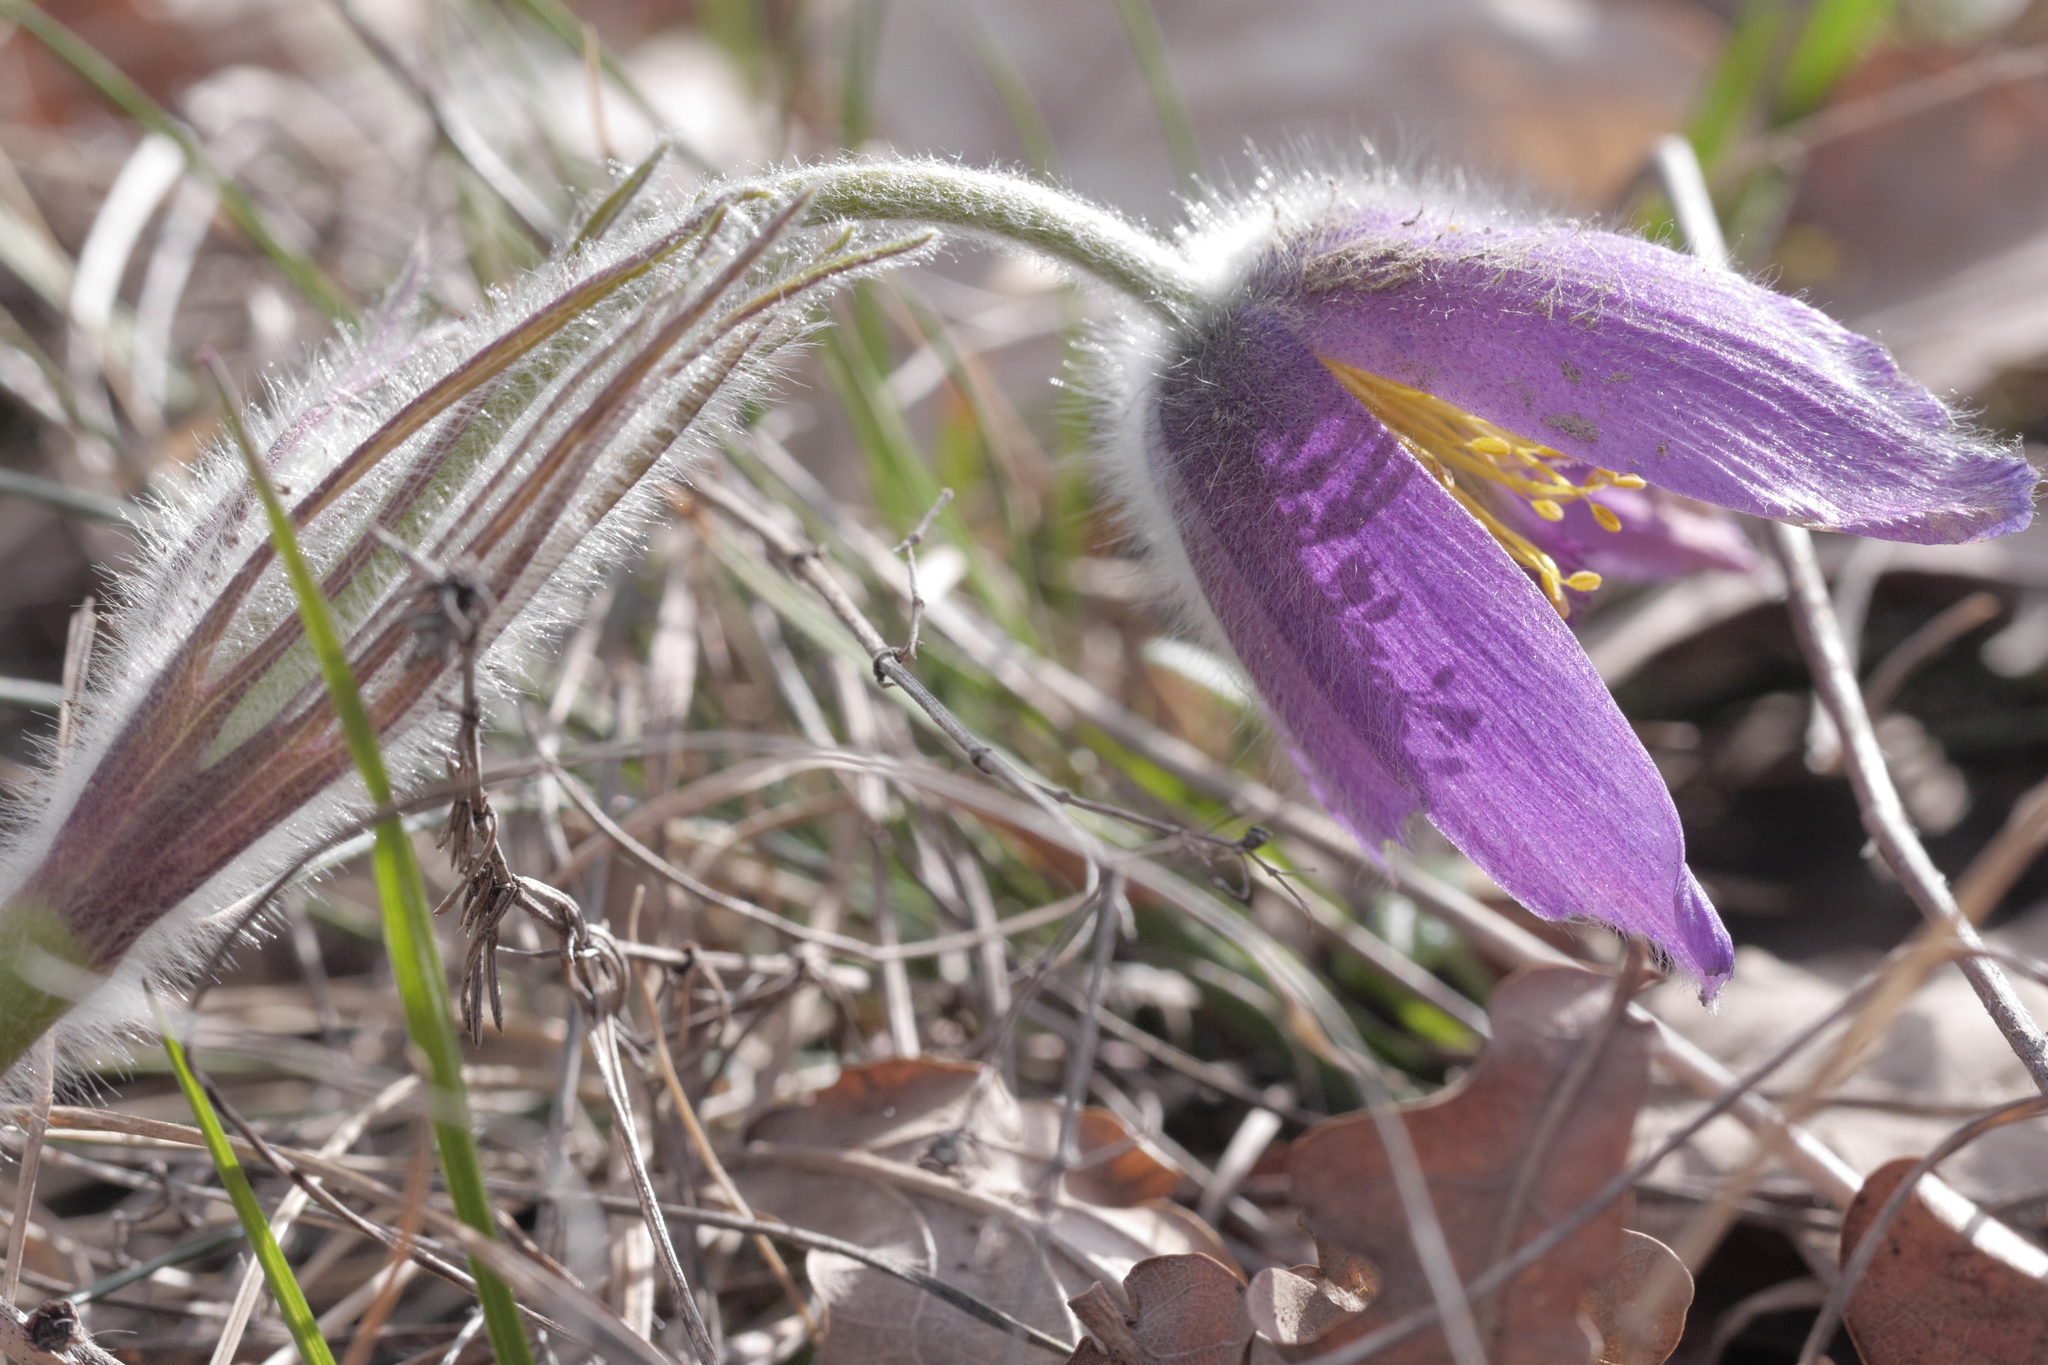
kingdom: Plantae
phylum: Tracheophyta
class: Magnoliopsida
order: Ranunculales
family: Ranunculaceae
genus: Pulsatilla
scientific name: Pulsatilla vulgaris
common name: Pasqueflower
